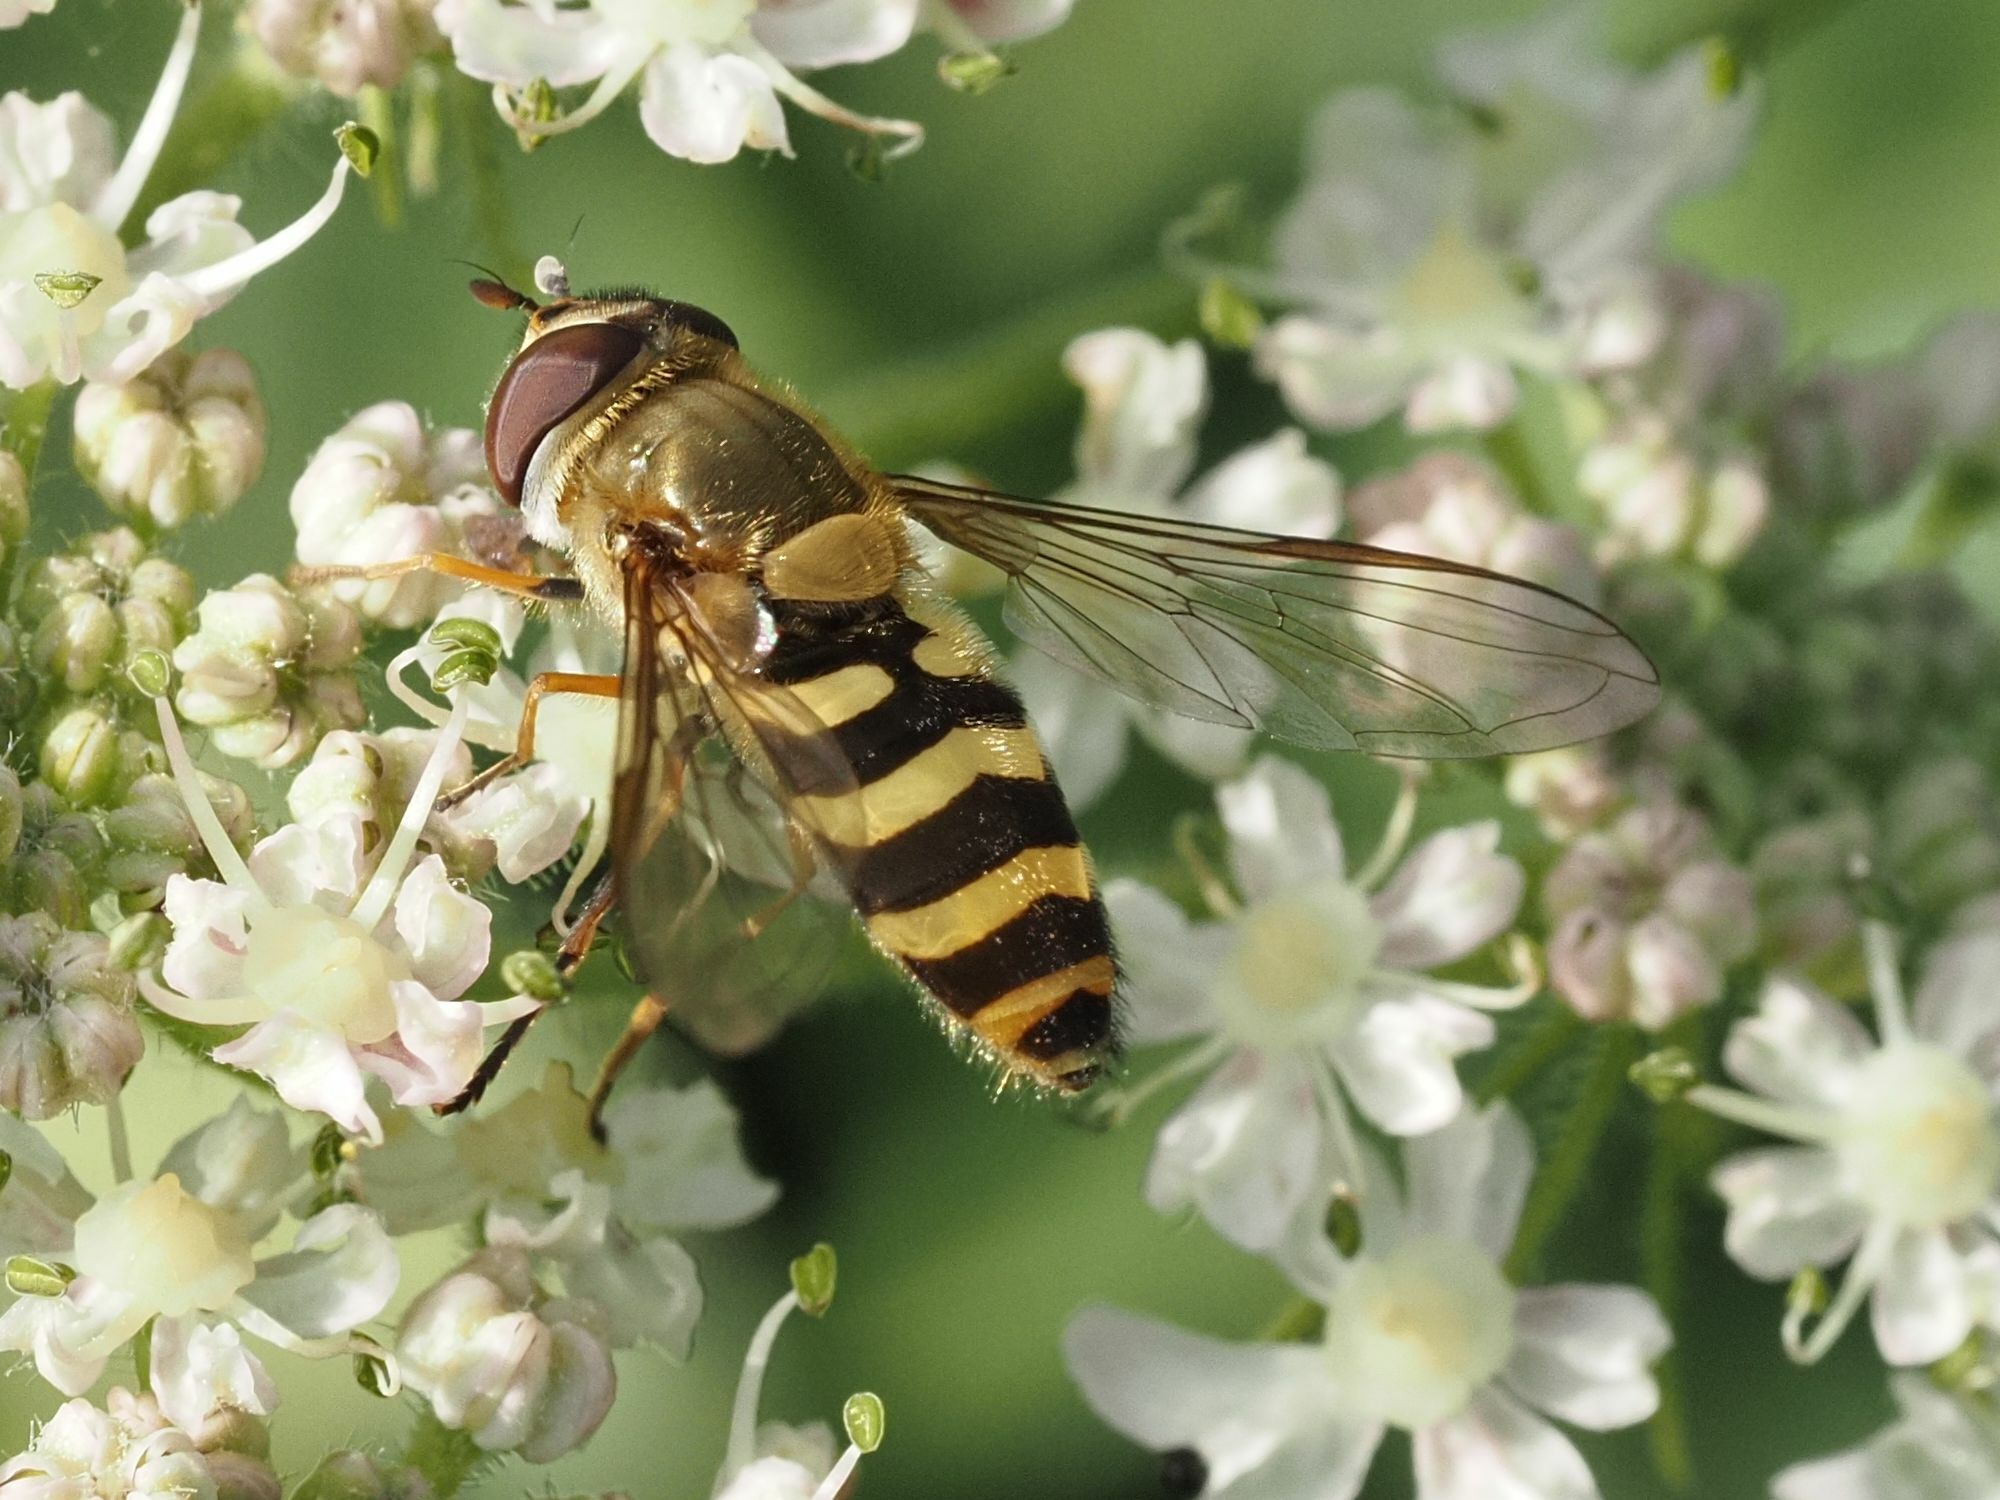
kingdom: Animalia
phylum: Arthropoda
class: Insecta
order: Diptera
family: Syrphidae
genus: Syrphus
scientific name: Syrphus
